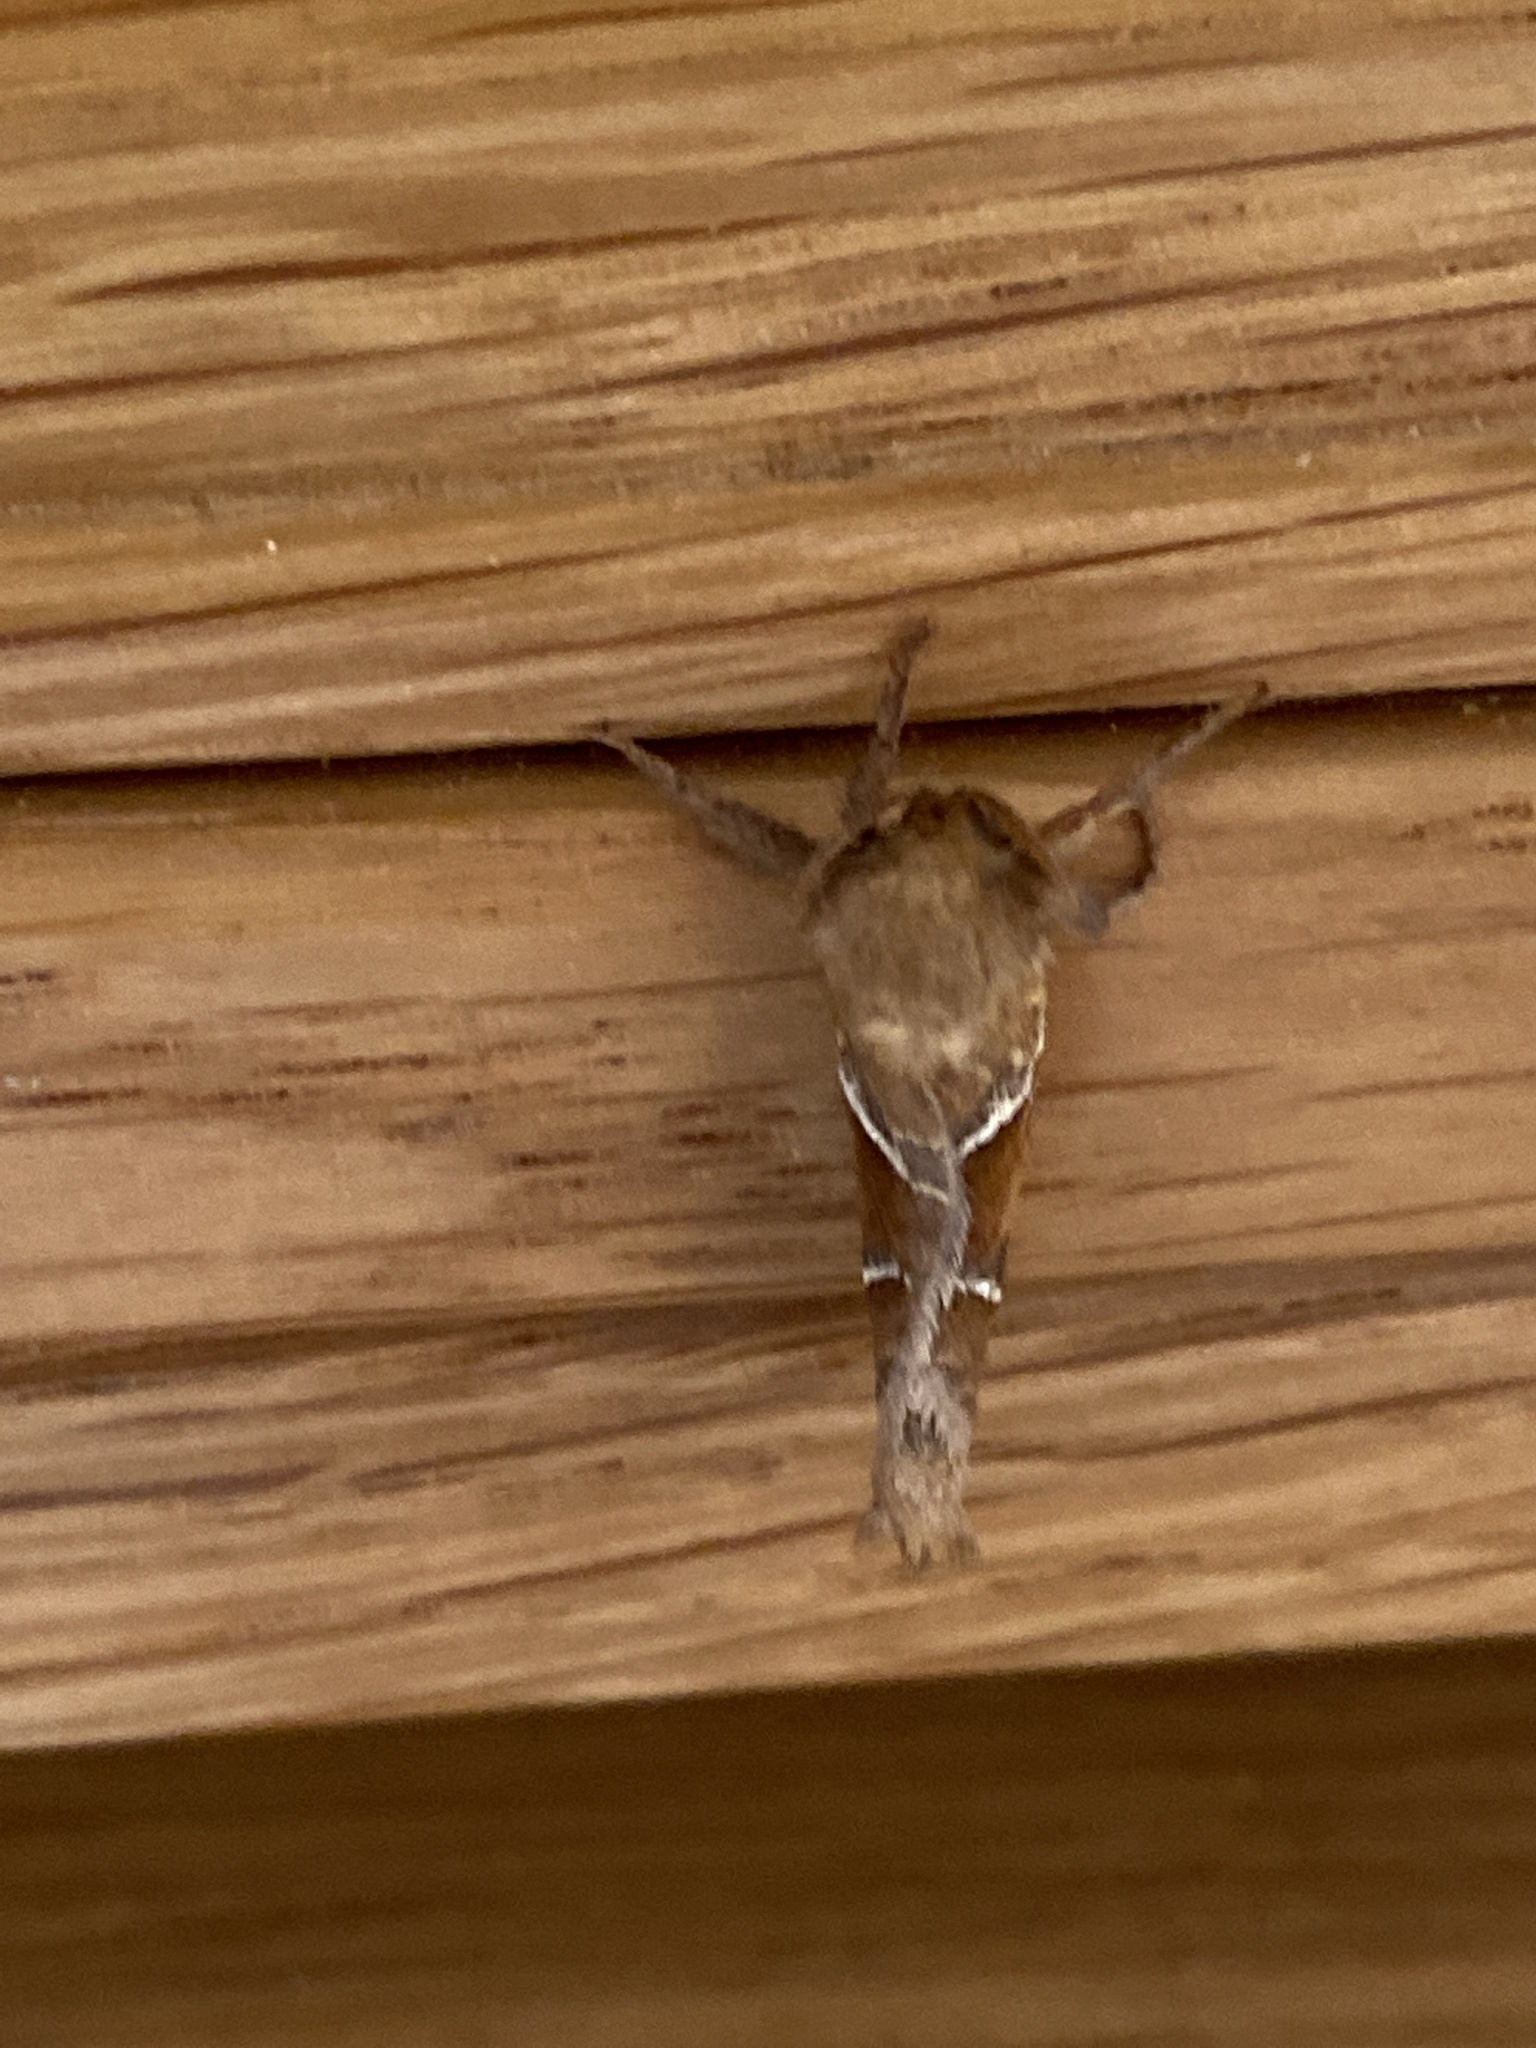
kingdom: Animalia
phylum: Arthropoda
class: Insecta
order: Lepidoptera
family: Hepialidae
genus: Triodia
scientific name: Triodia sylvina
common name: Orange swift
